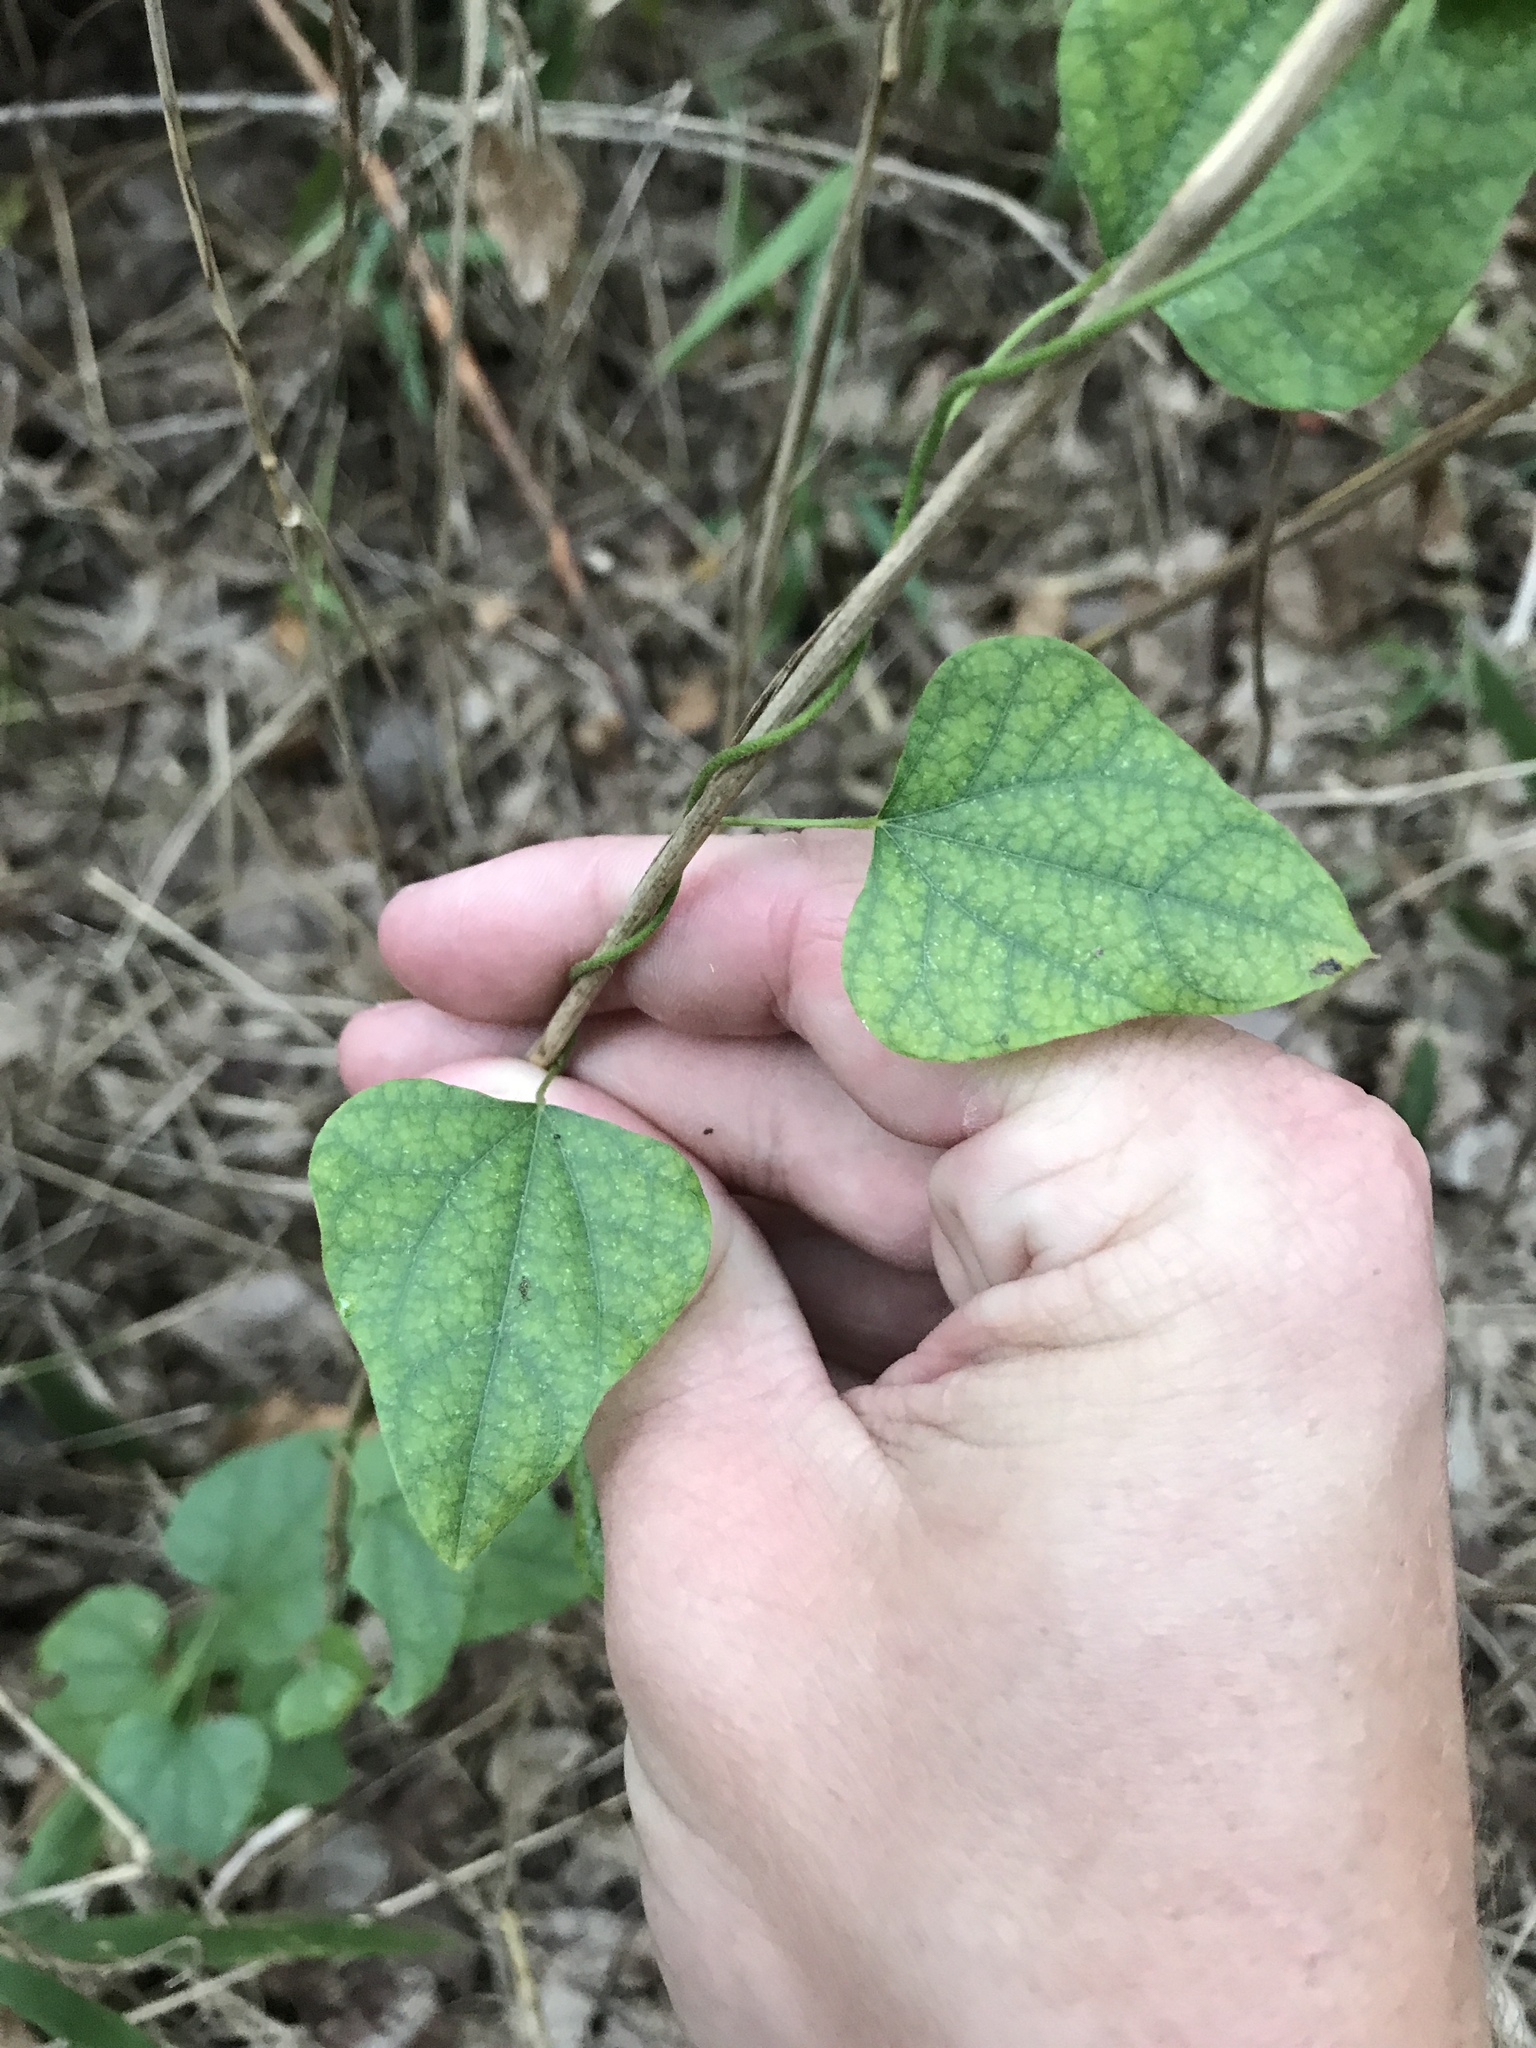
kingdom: Plantae
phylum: Tracheophyta
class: Magnoliopsida
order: Ranunculales
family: Menispermaceae
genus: Cocculus
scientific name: Cocculus carolinus
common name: Carolina moonseed
